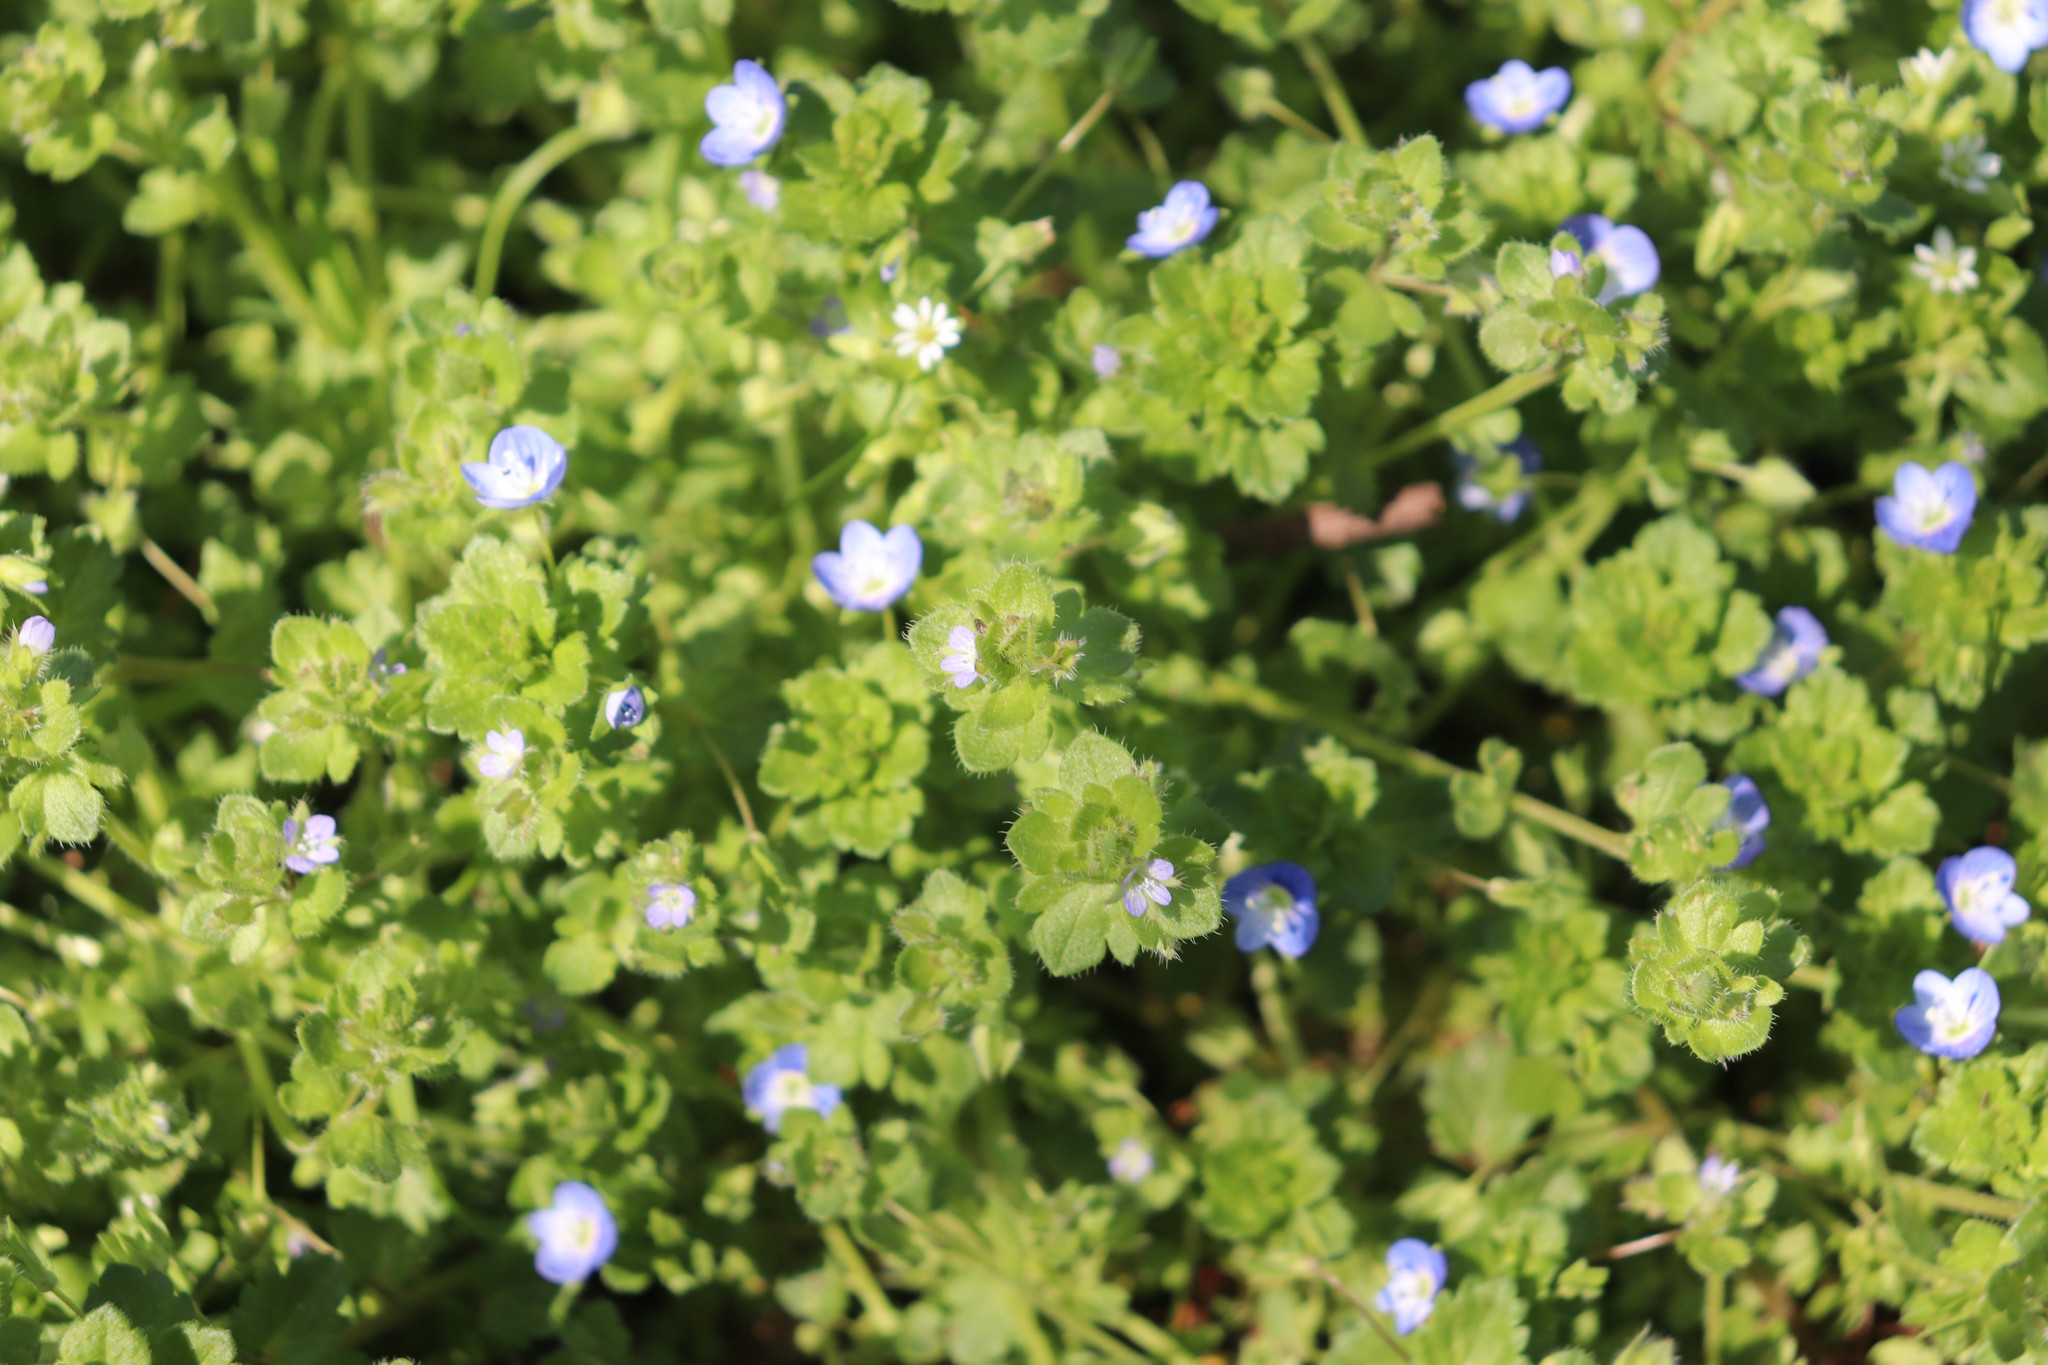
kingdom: Plantae
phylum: Tracheophyta
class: Magnoliopsida
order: Lamiales
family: Plantaginaceae
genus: Veronica
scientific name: Veronica hederifolia
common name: Ivy-leaved speedwell
